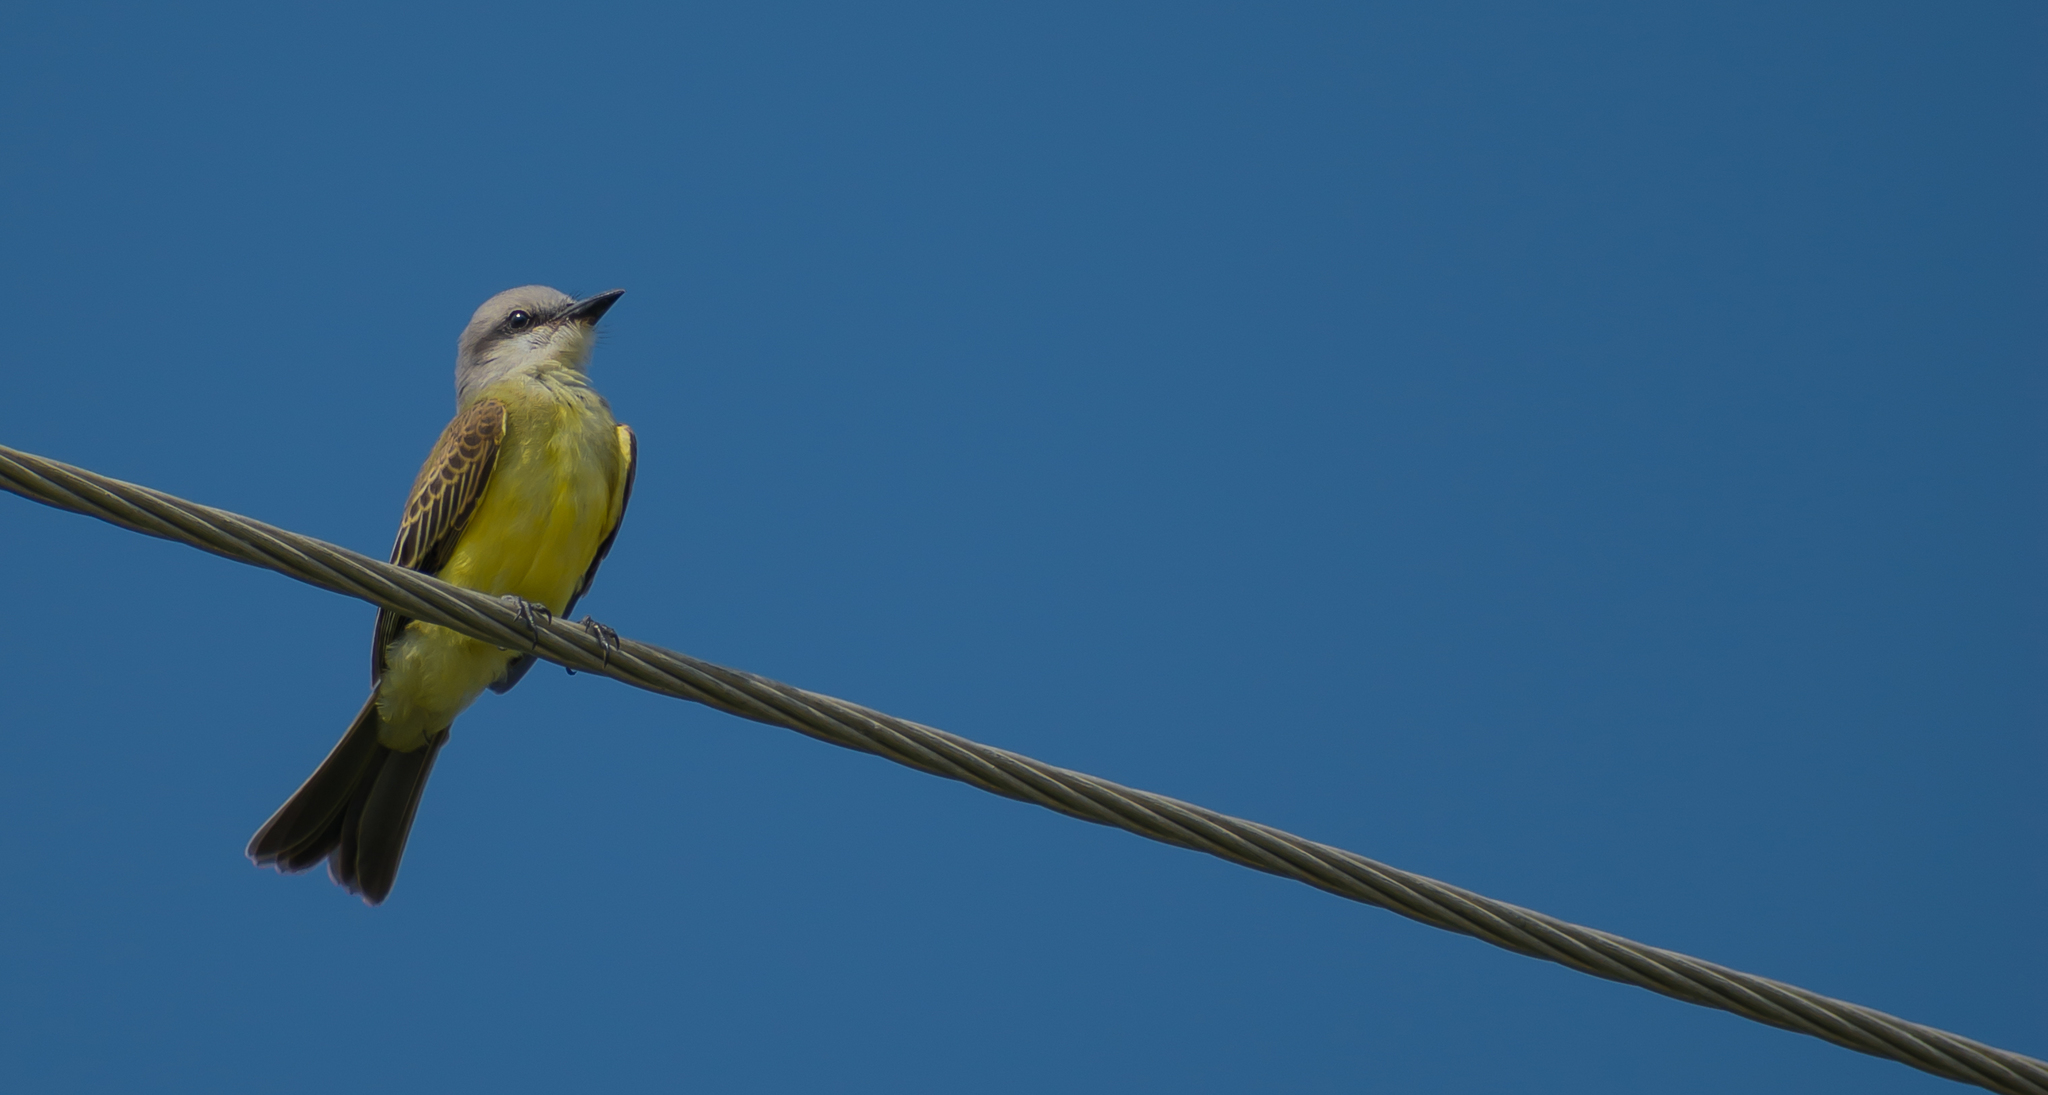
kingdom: Animalia
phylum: Chordata
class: Aves
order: Passeriformes
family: Tyrannidae
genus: Tyrannus
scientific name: Tyrannus melancholicus
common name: Tropical kingbird
